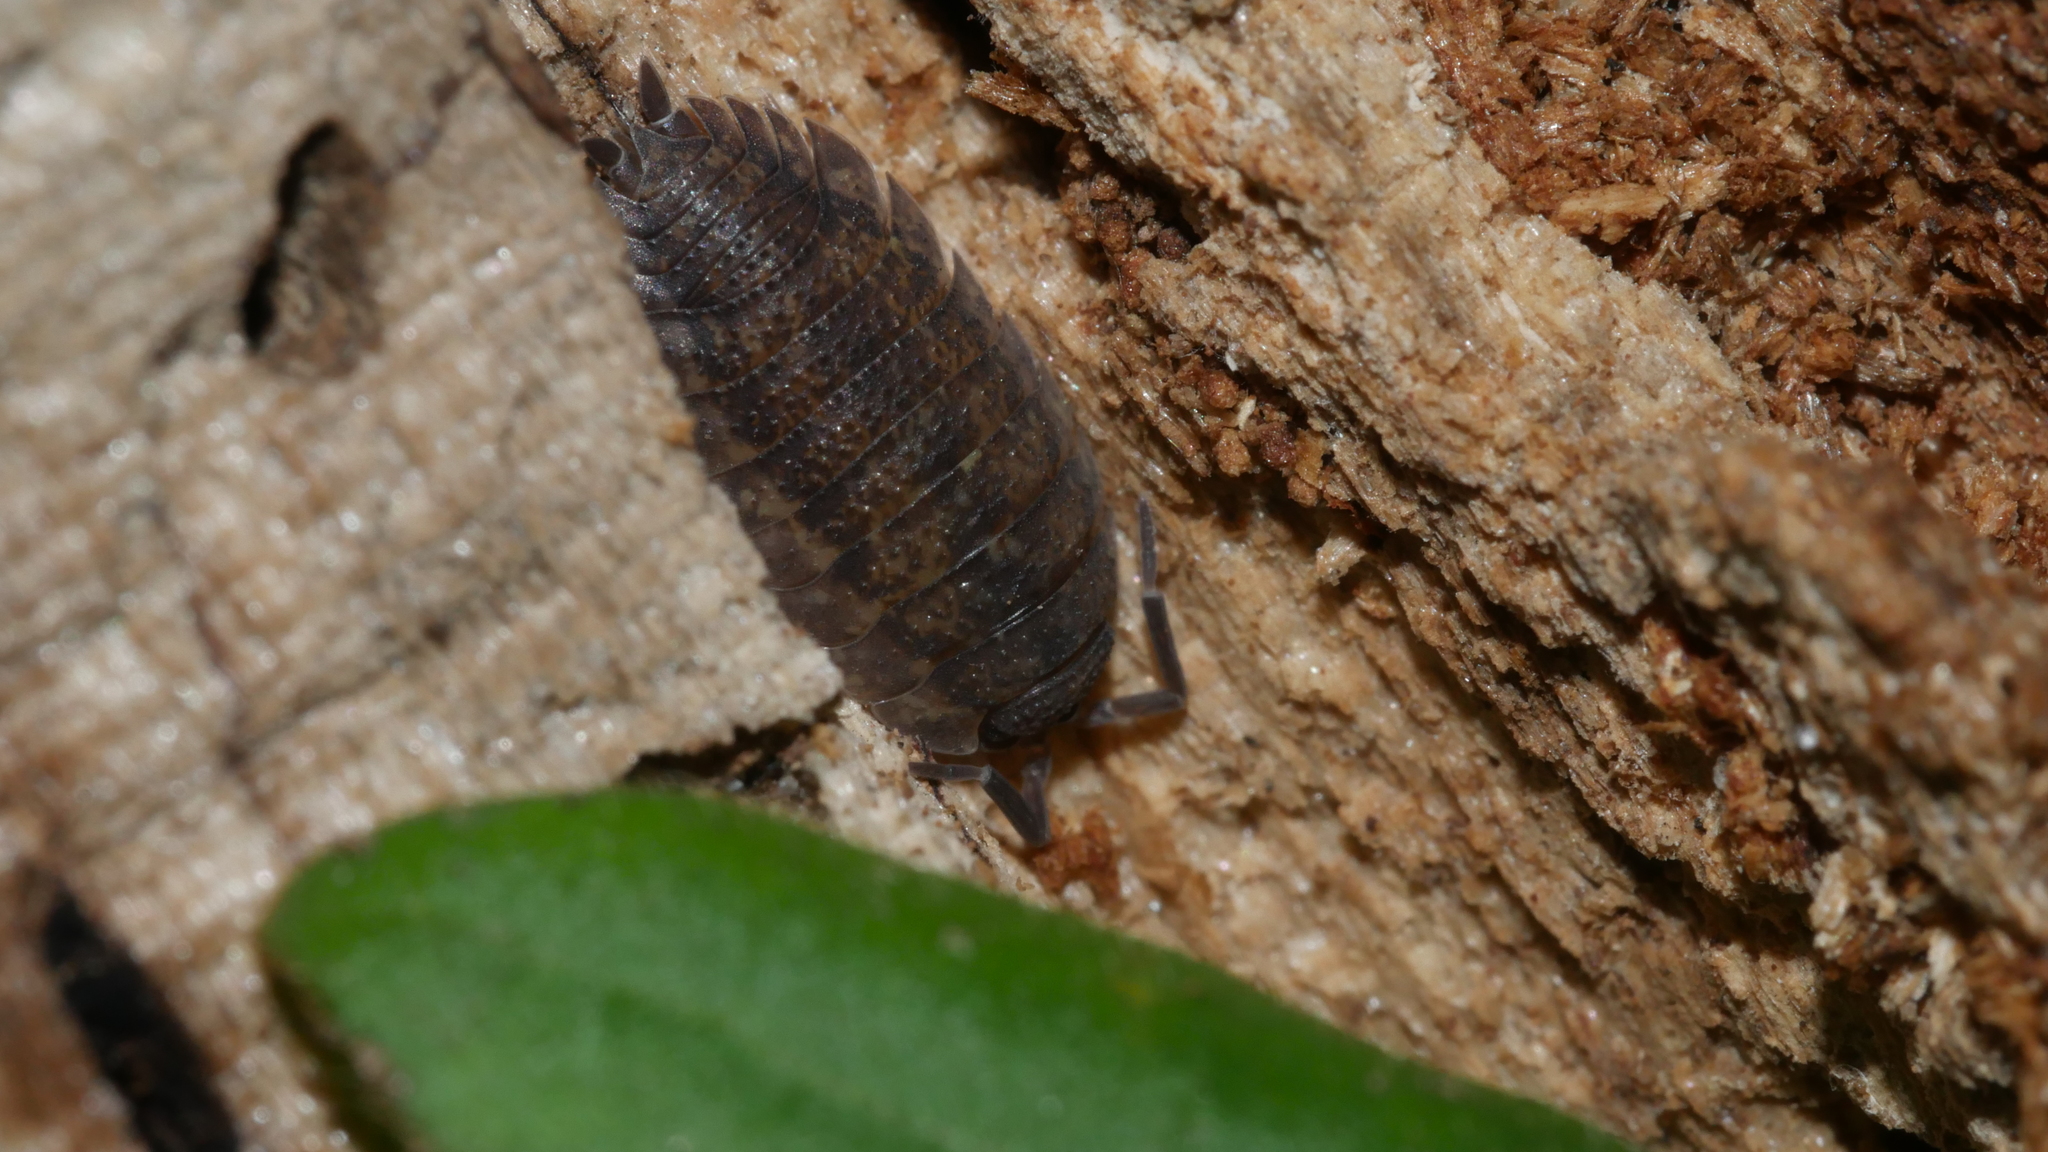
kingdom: Animalia
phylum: Arthropoda
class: Malacostraca
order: Isopoda
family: Porcellionidae
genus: Porcellio
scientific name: Porcellio scaber
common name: Common rough woodlouse
